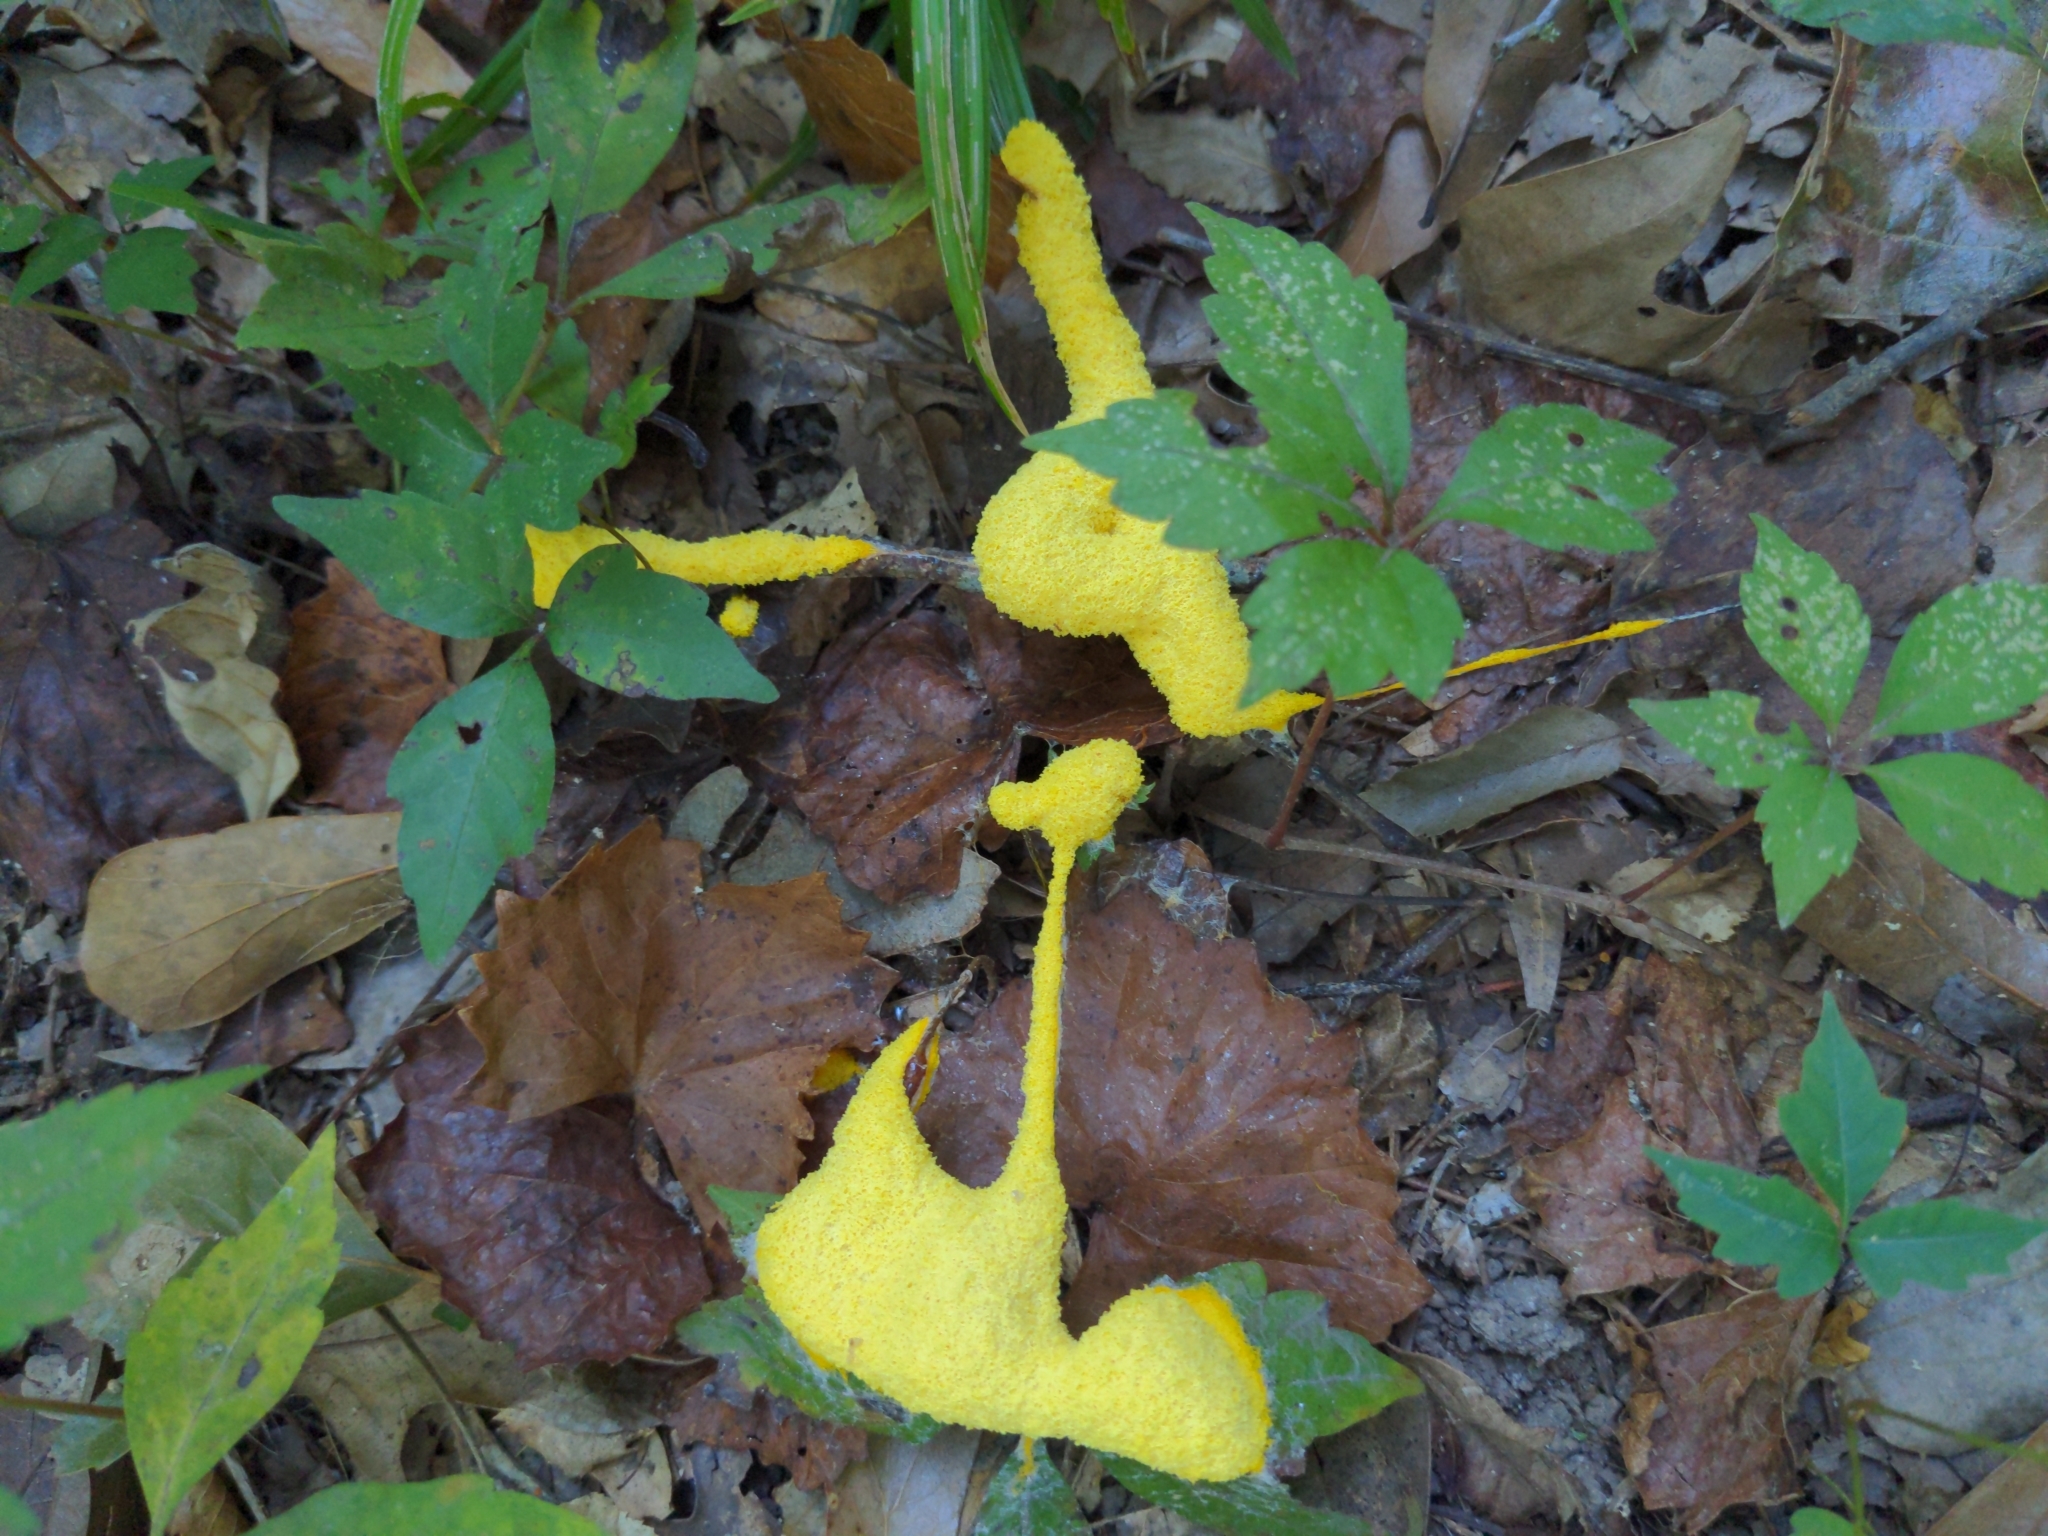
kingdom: Protozoa
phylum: Mycetozoa
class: Myxomycetes
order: Physarales
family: Physaraceae
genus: Fuligo
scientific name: Fuligo septica
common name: Dog vomit slime mold
